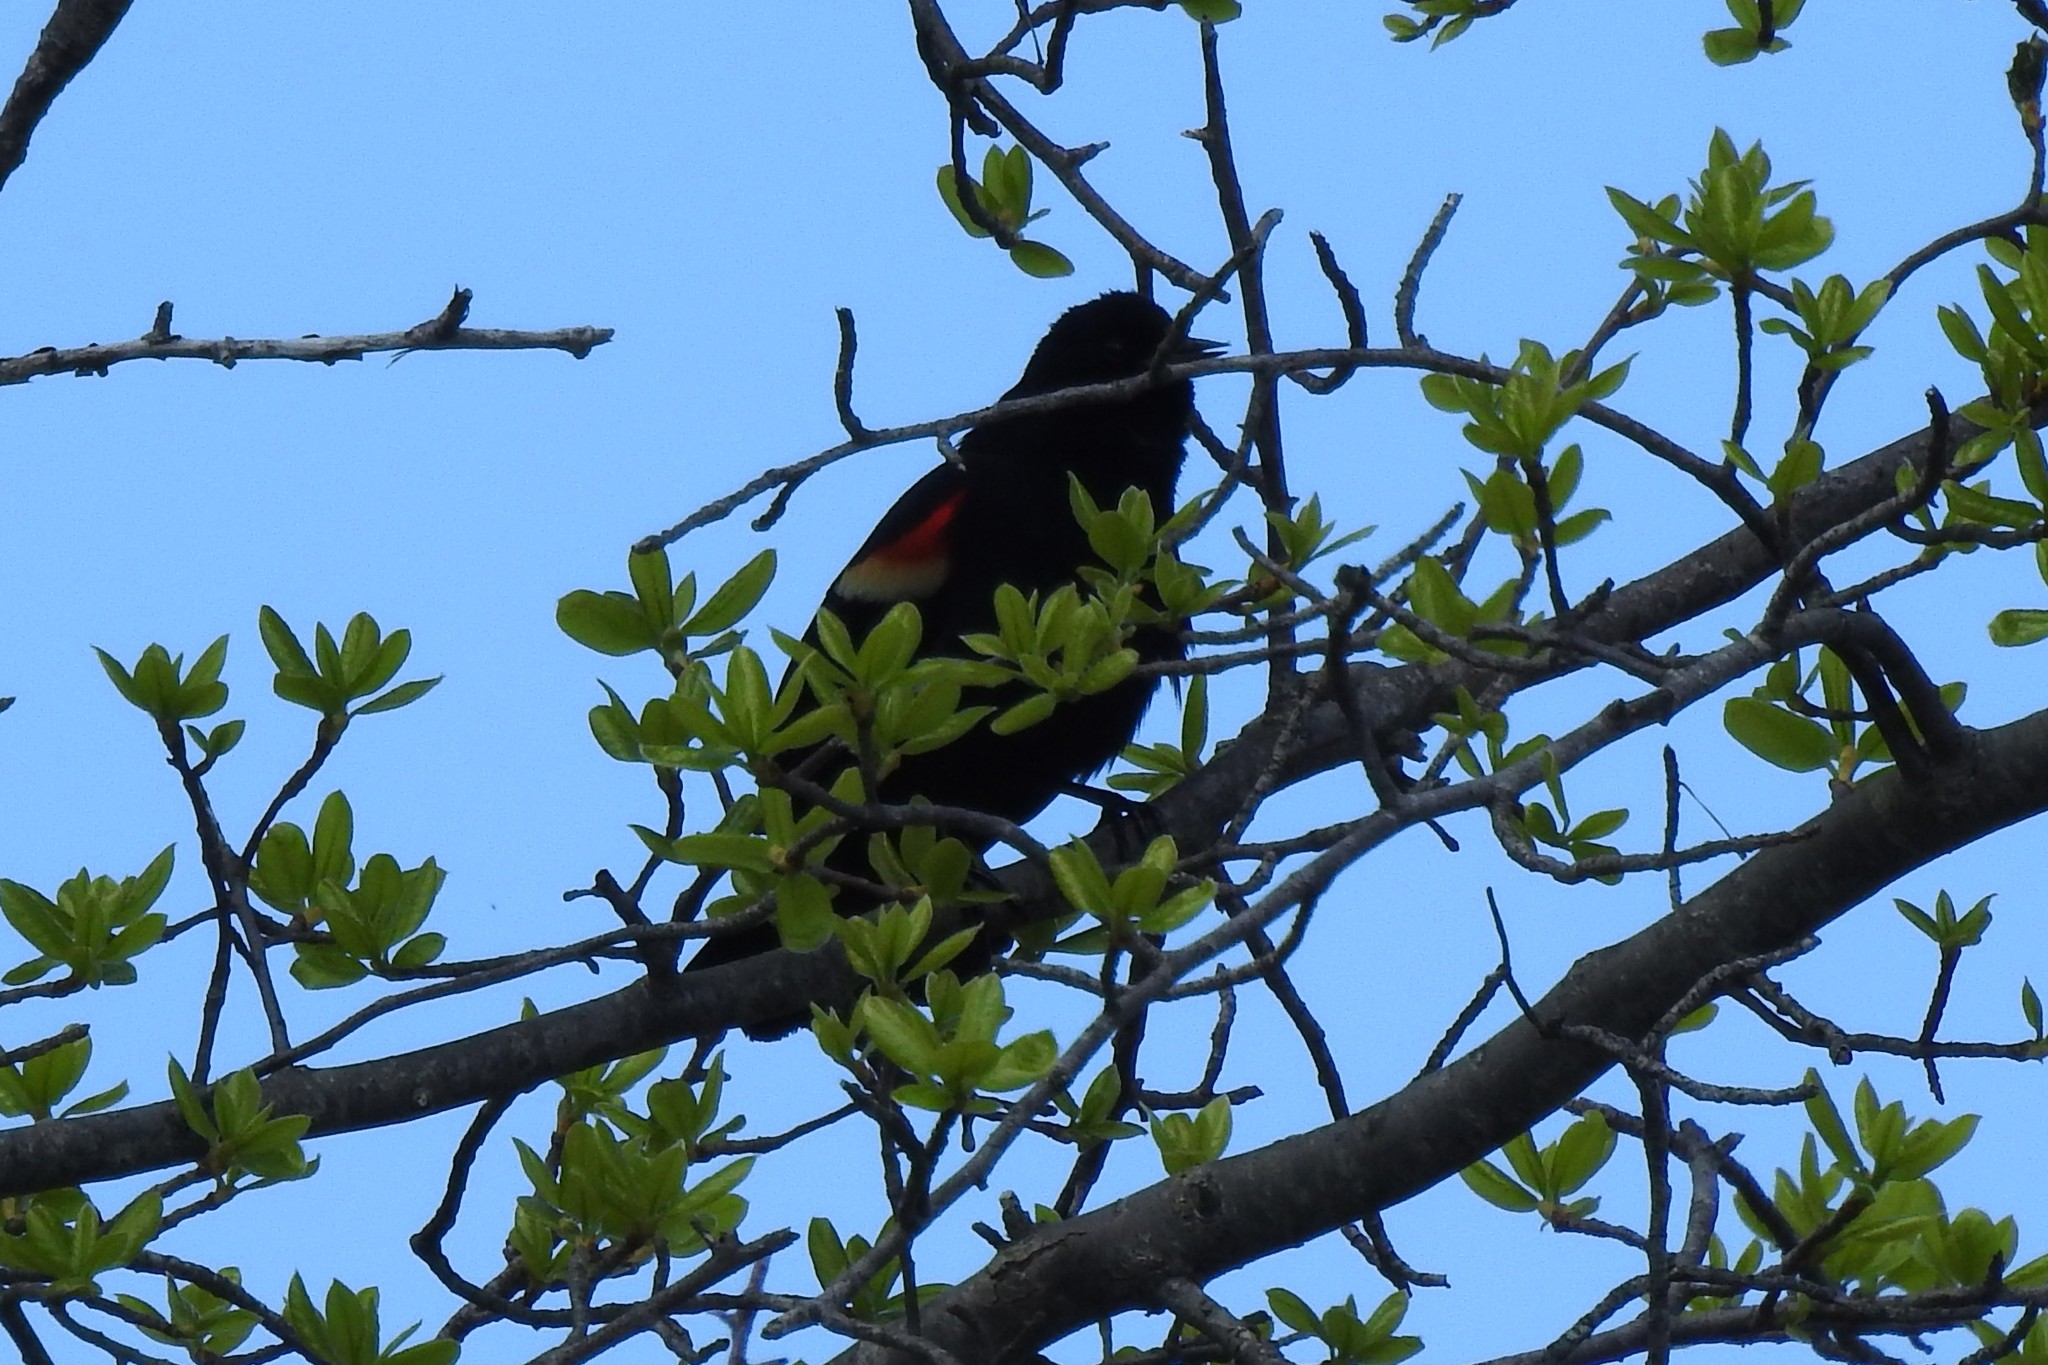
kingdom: Animalia
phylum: Chordata
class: Aves
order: Passeriformes
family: Icteridae
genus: Agelaius
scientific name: Agelaius phoeniceus
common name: Red-winged blackbird
